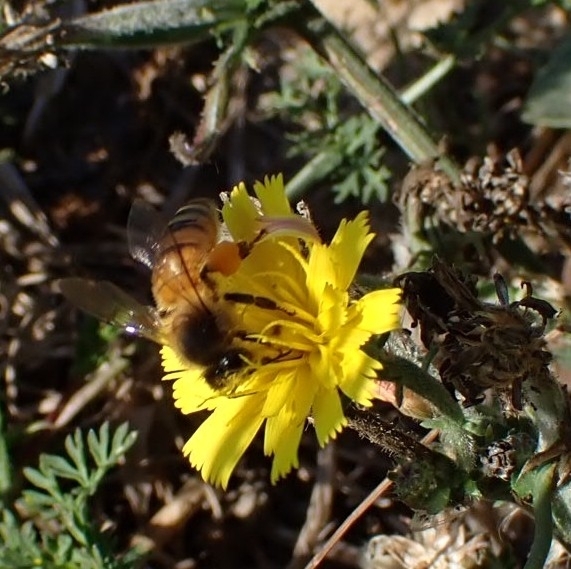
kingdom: Animalia
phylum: Arthropoda
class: Insecta
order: Hymenoptera
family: Apidae
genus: Apis
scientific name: Apis mellifera
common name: Honey bee
